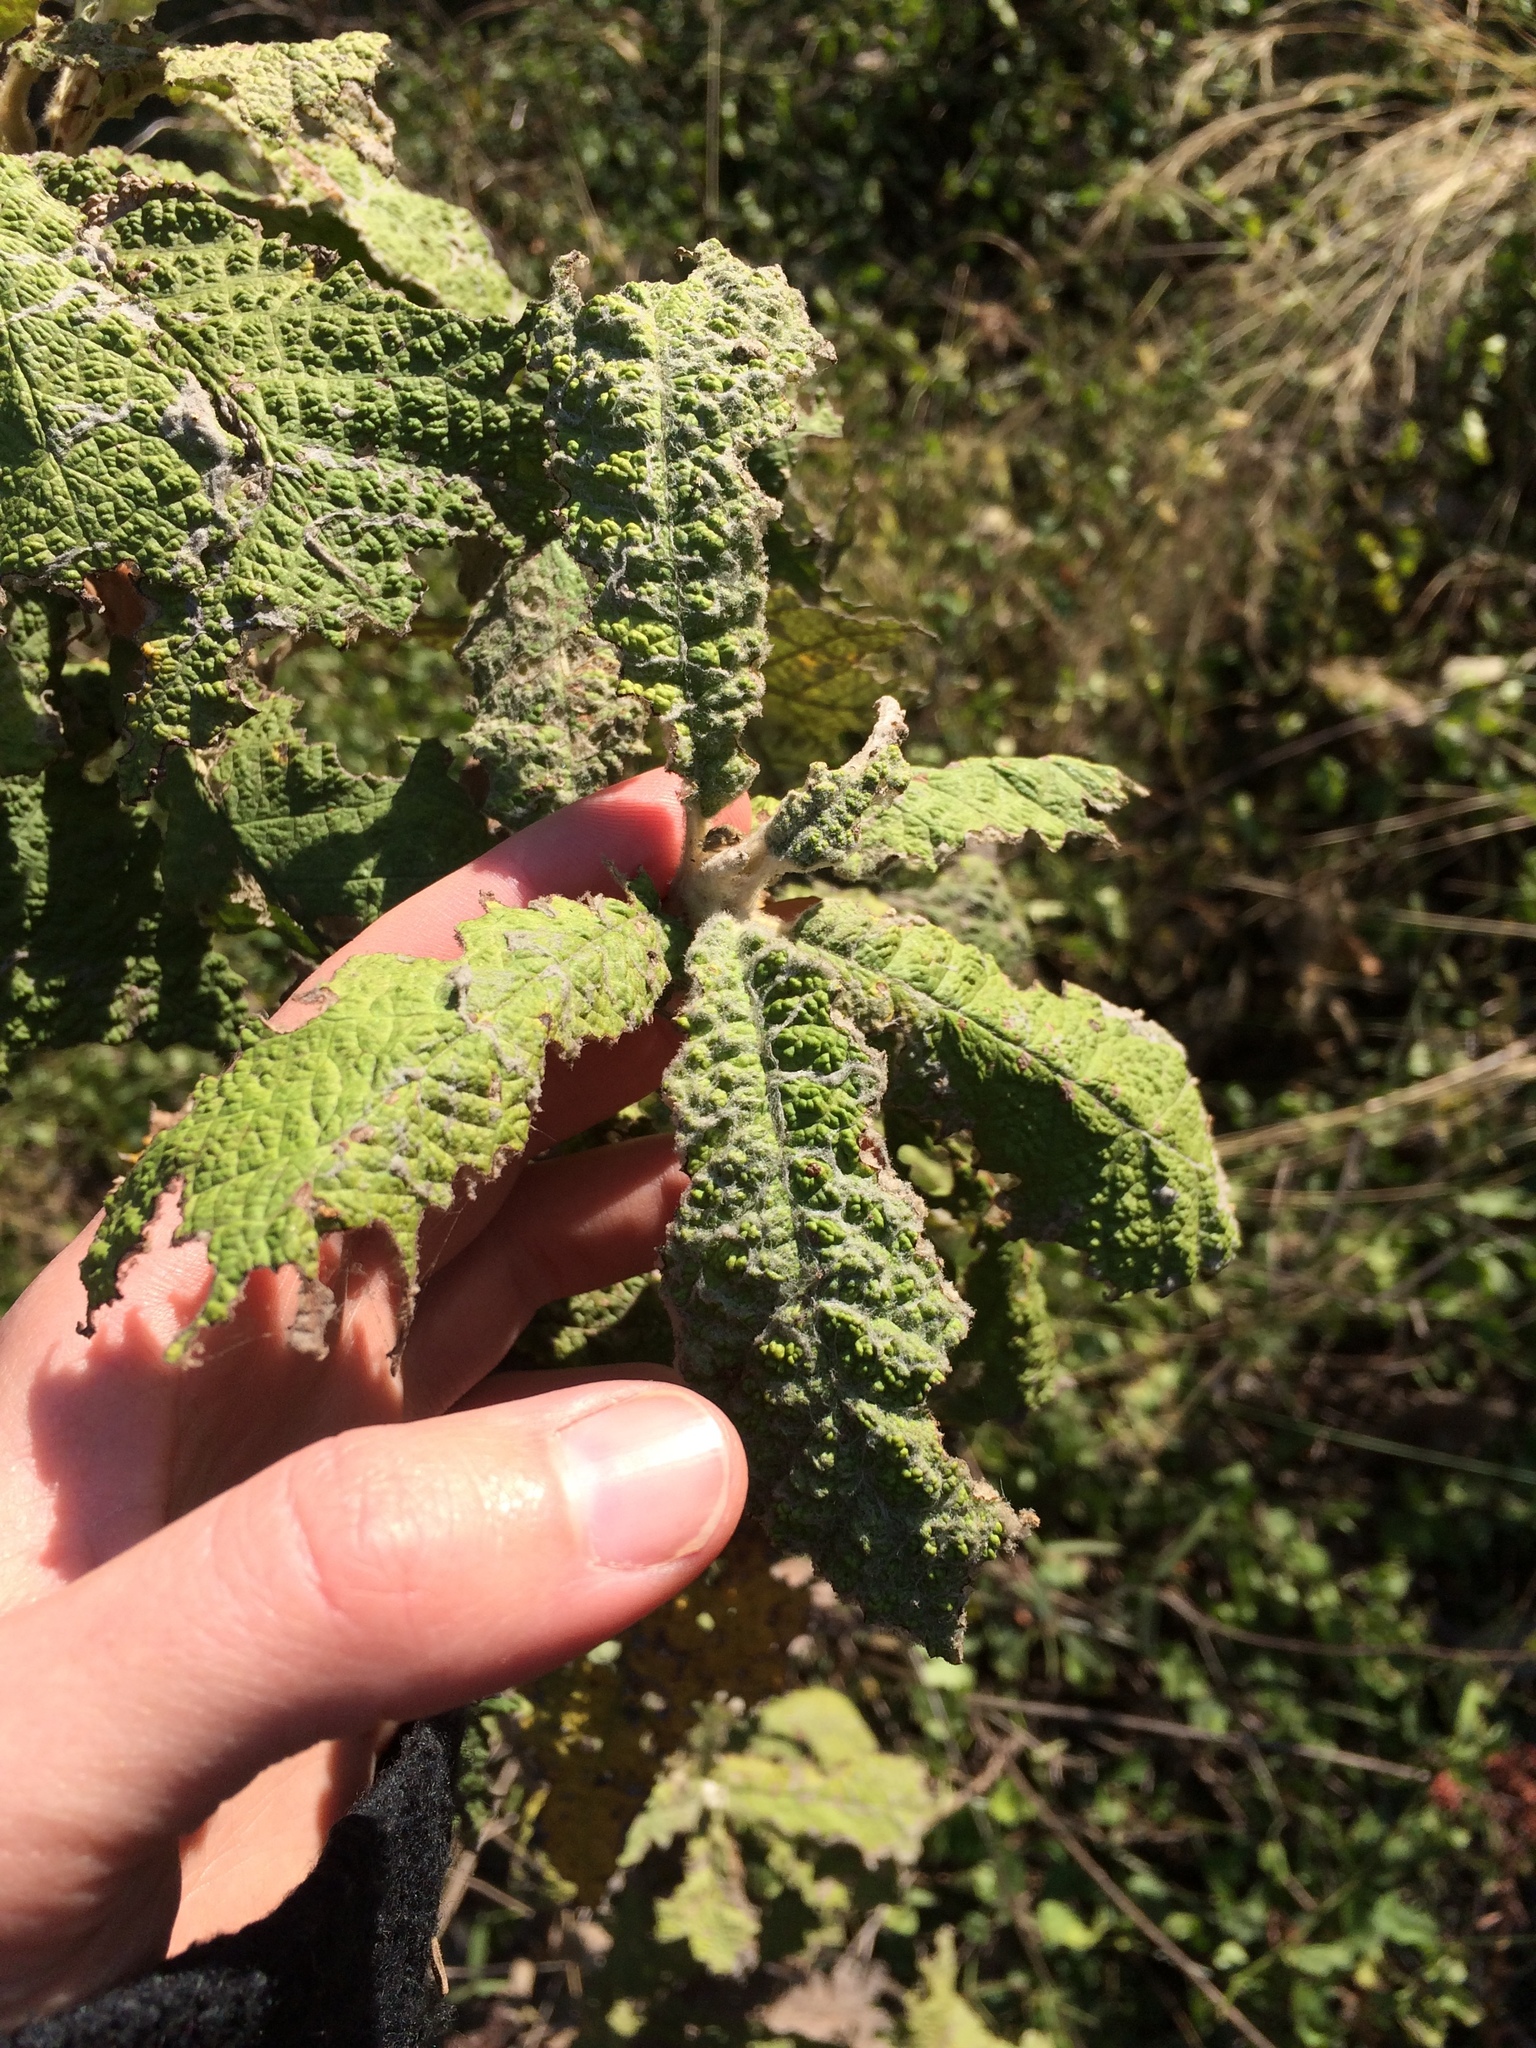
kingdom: Plantae
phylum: Tracheophyta
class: Magnoliopsida
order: Asterales
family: Asteraceae
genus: Tarchonanthus
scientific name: Tarchonanthus trilobus
